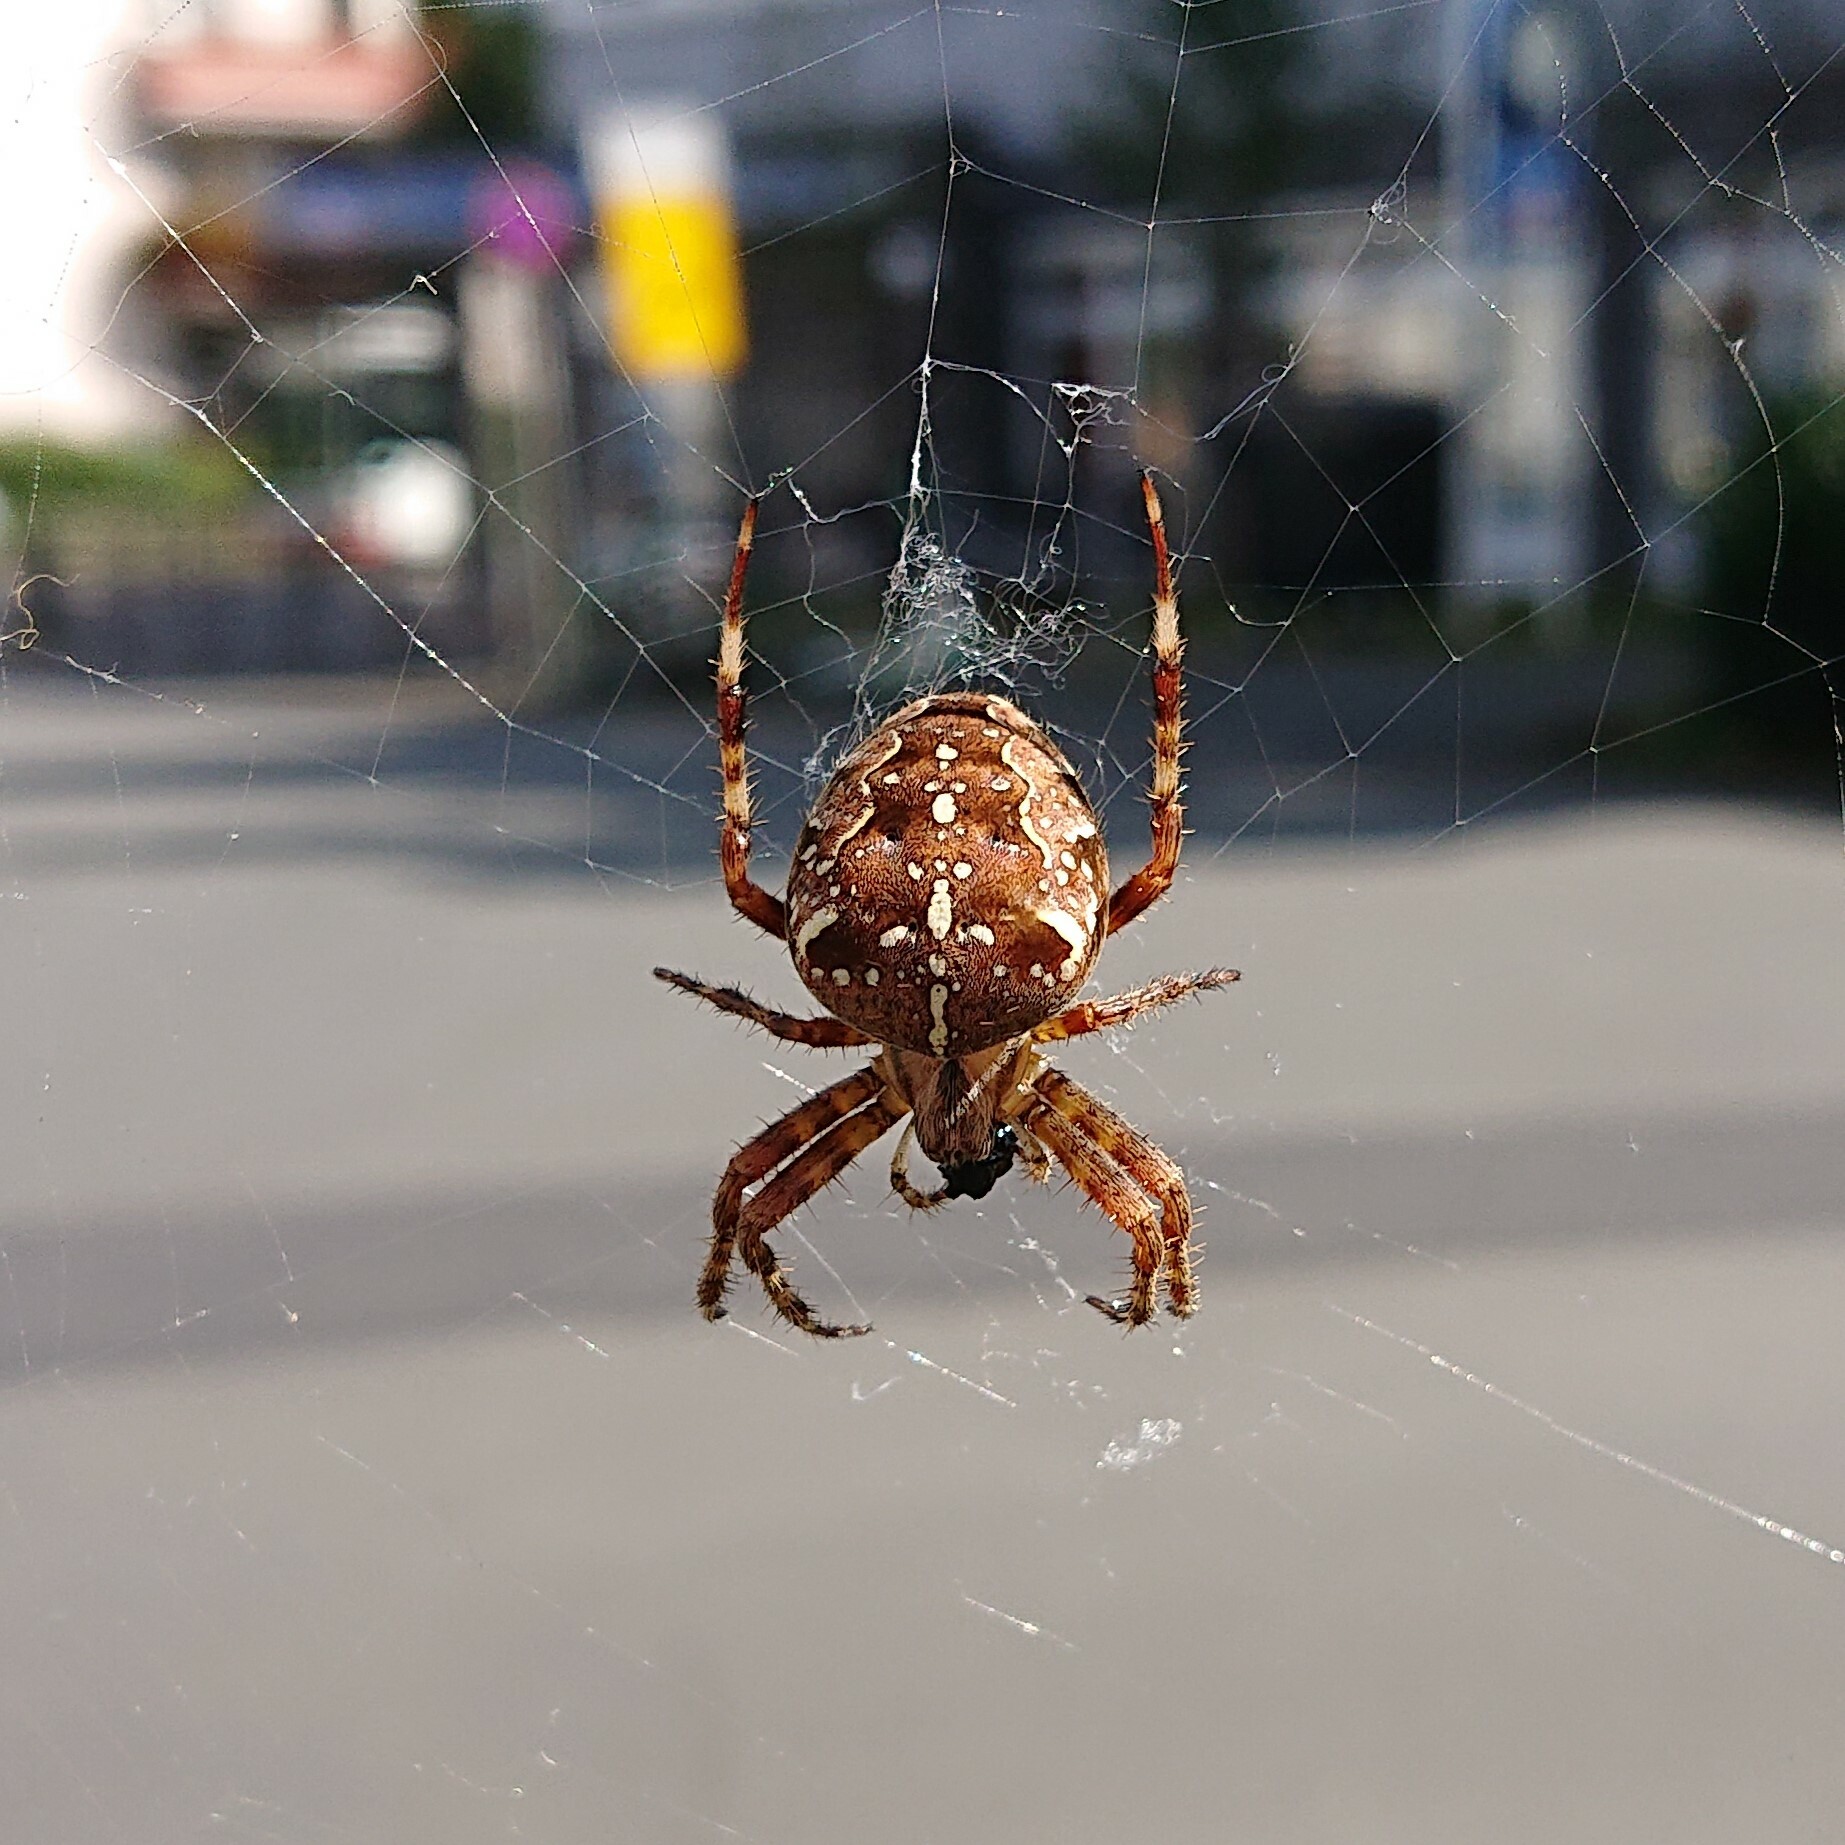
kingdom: Animalia
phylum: Arthropoda
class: Arachnida
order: Araneae
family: Araneidae
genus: Araneus
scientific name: Araneus diadematus
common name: Cross orbweaver
